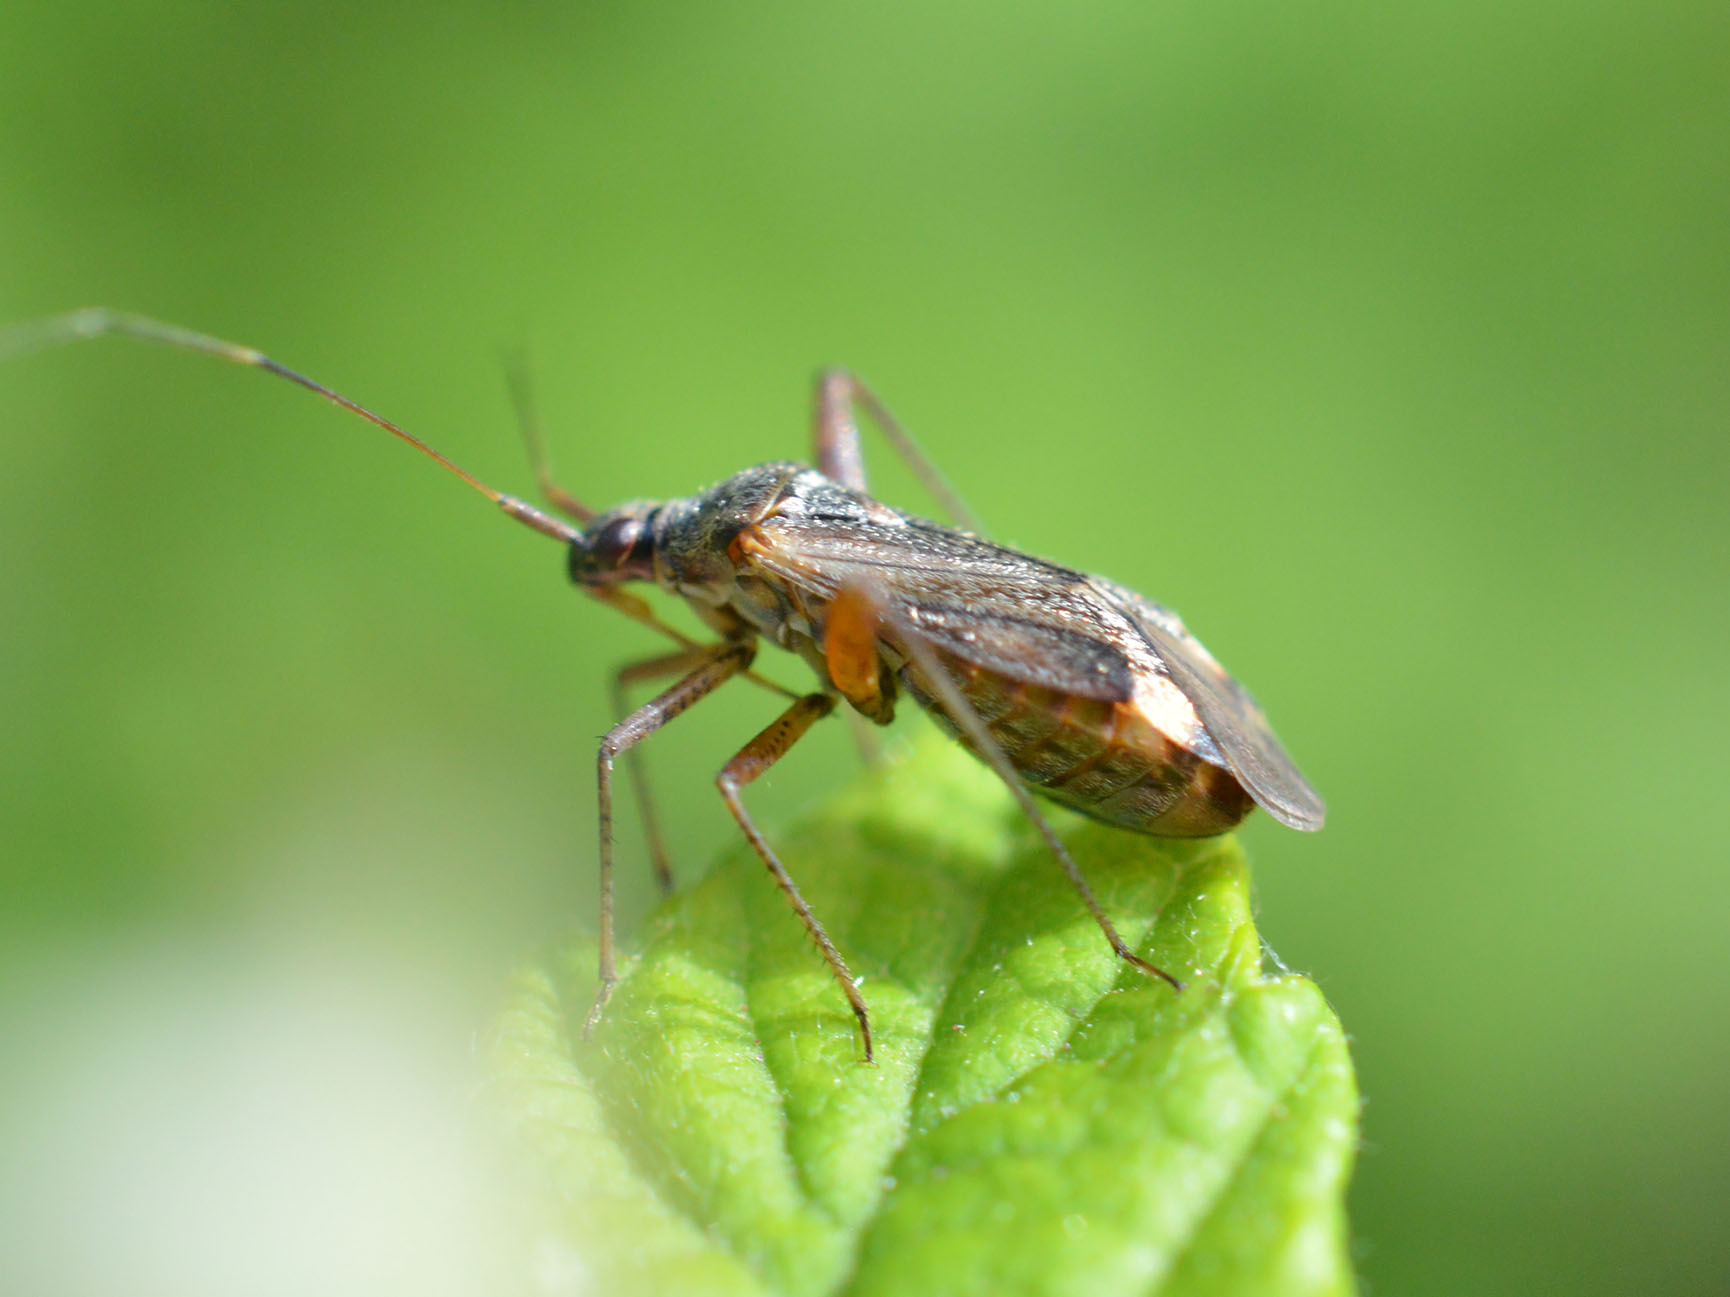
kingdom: Animalia
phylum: Arthropoda
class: Insecta
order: Hemiptera
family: Miridae
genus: Closterotomus
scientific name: Closterotomus fulvomaculatus
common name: Spotted plant bug
